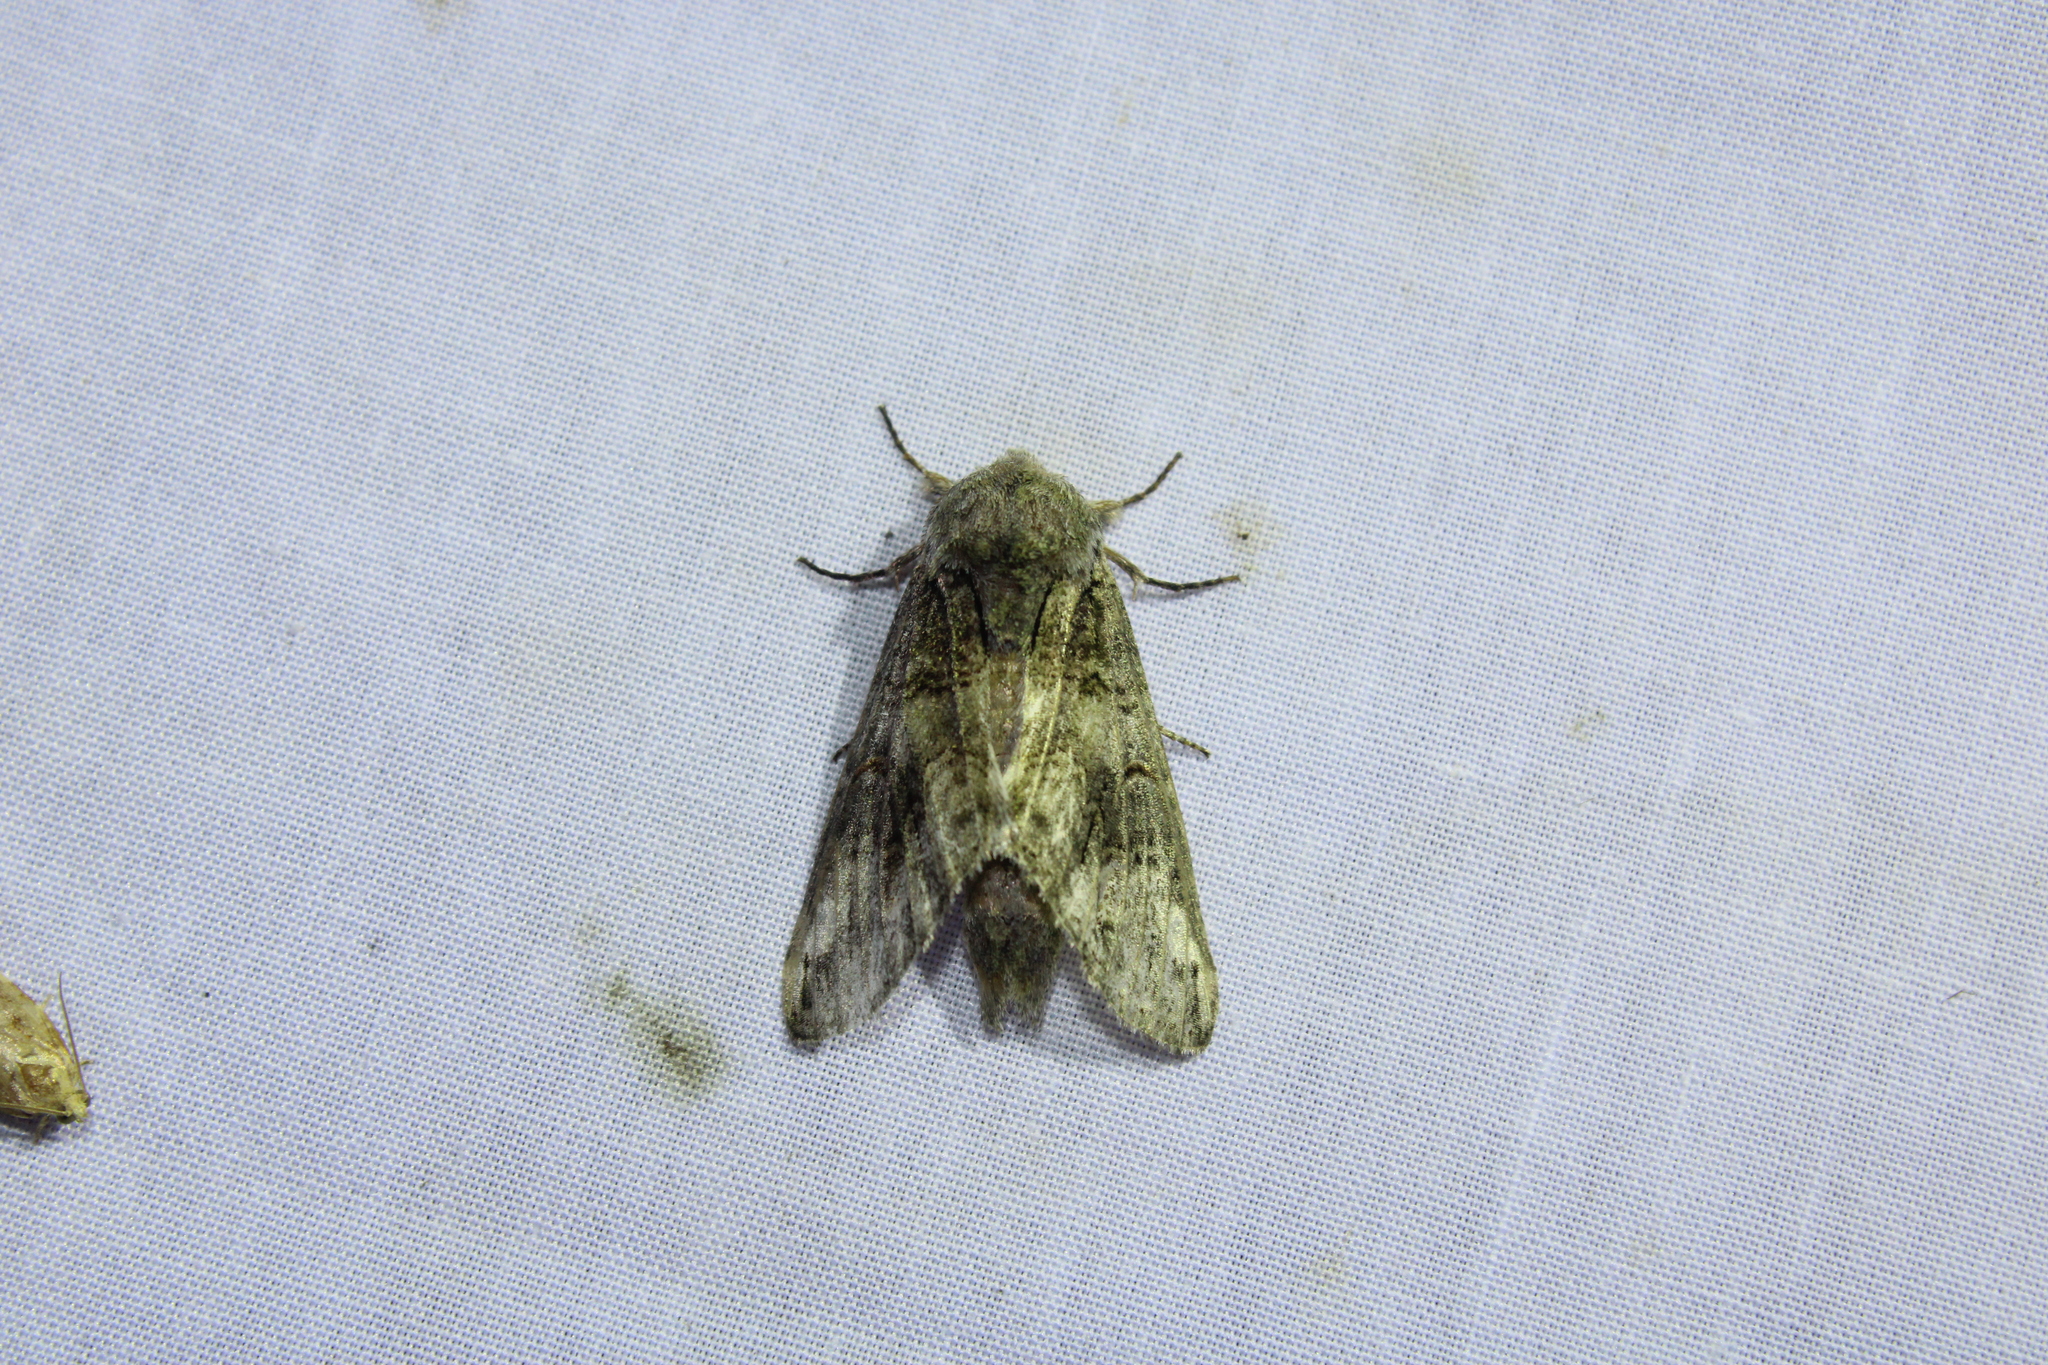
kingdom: Animalia
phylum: Arthropoda
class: Insecta
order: Lepidoptera
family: Notodontidae
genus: Heterocampa
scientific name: Heterocampa obliqua
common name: Oblique heterocampa
